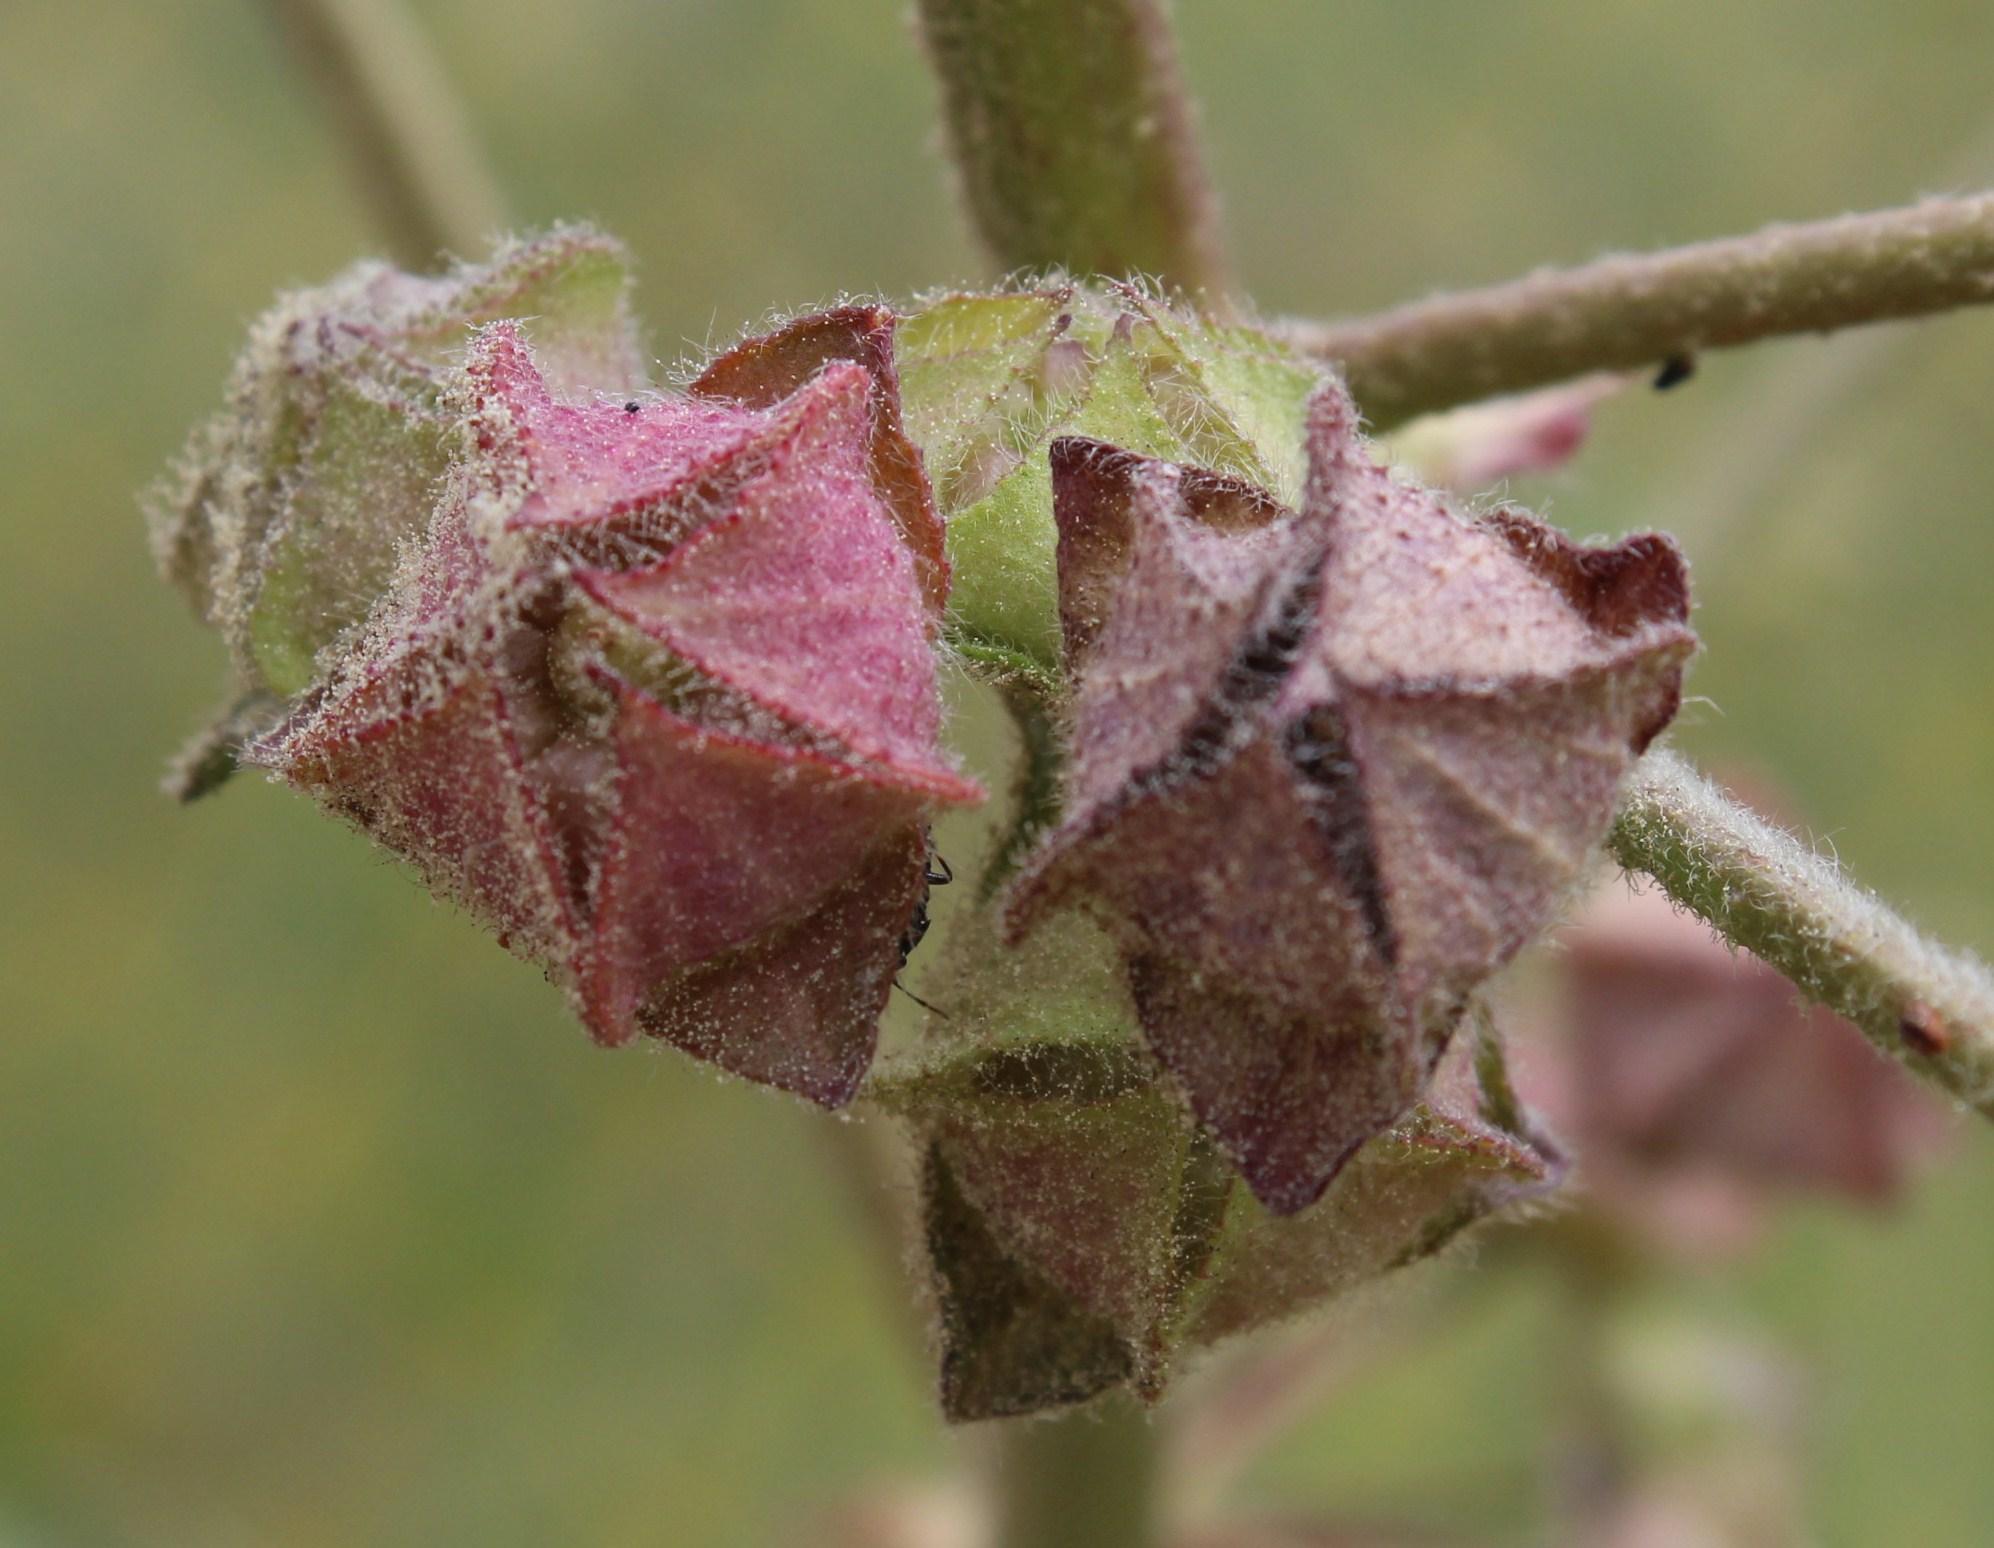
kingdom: Plantae
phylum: Tracheophyta
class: Magnoliopsida
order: Malvales
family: Malvaceae
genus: Malva
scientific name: Malva multiflora
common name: Cheeseweed
